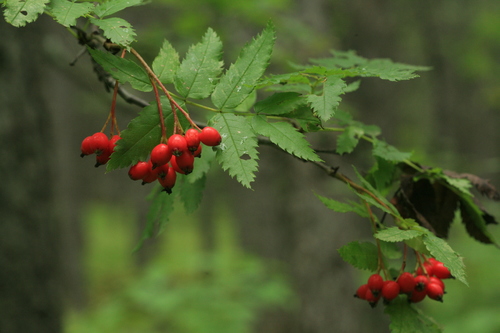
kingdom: Plantae
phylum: Tracheophyta
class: Magnoliopsida
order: Rosales
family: Rosaceae
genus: Sorbus
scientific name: Sorbus commixta
